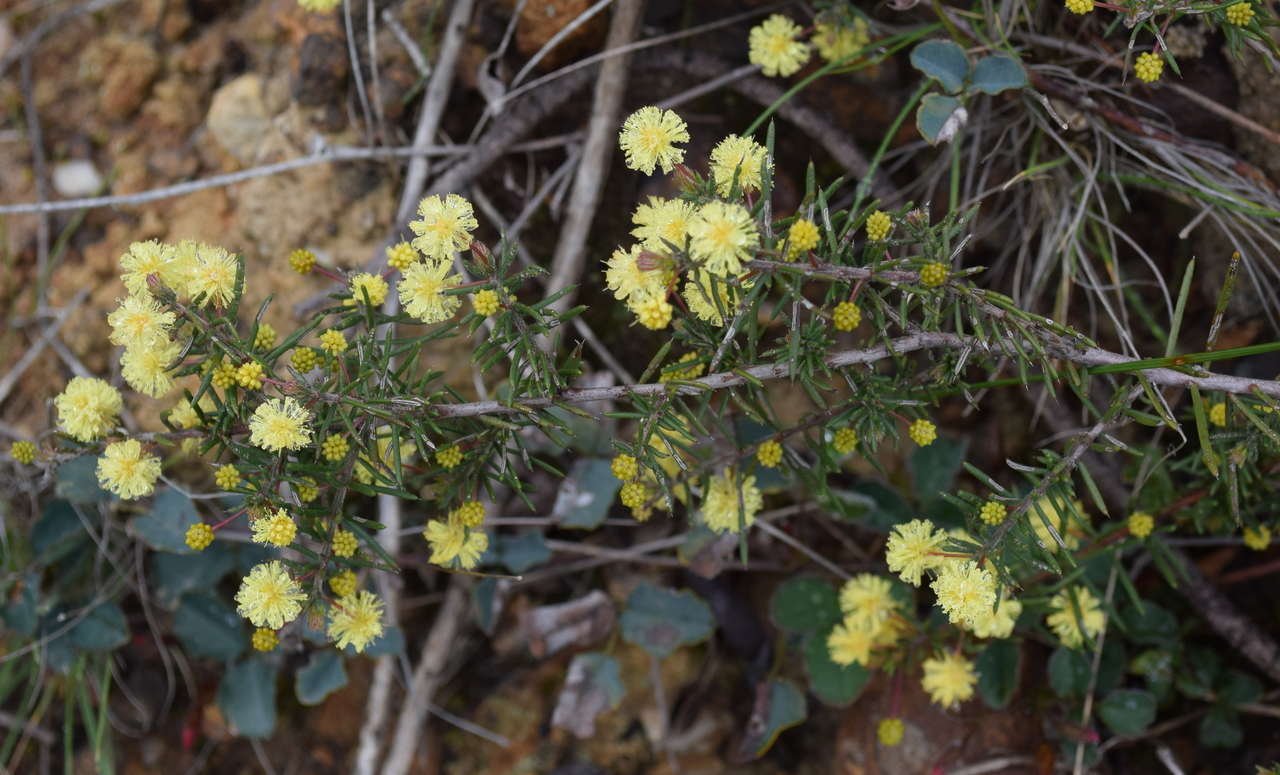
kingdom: Plantae
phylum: Tracheophyta
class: Magnoliopsida
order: Fabales
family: Fabaceae
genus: Acacia
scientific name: Acacia aculeatissima
